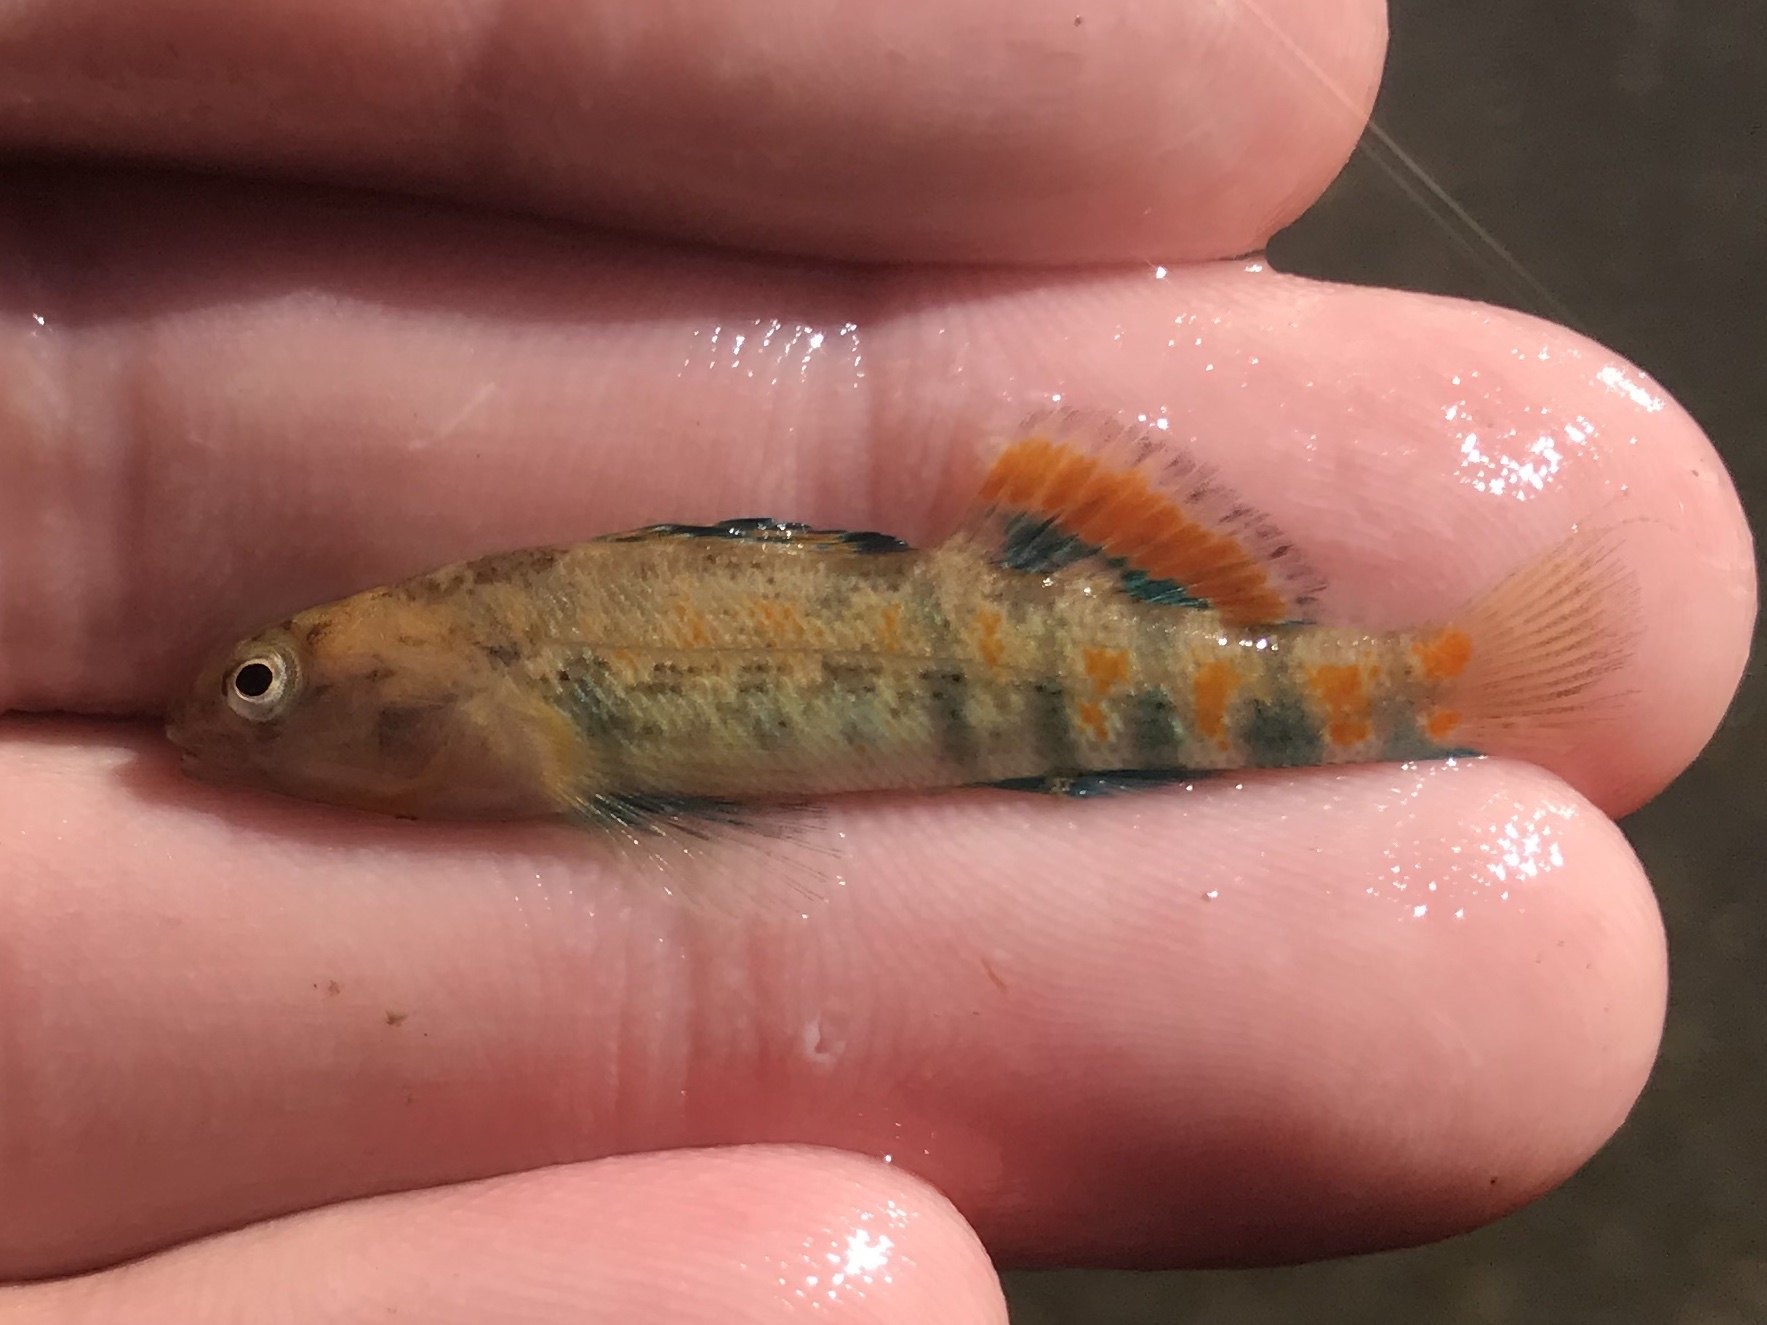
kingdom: Animalia
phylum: Chordata
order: Perciformes
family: Percidae
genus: Etheostoma
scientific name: Etheostoma spectabile
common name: Orangethroat darter
